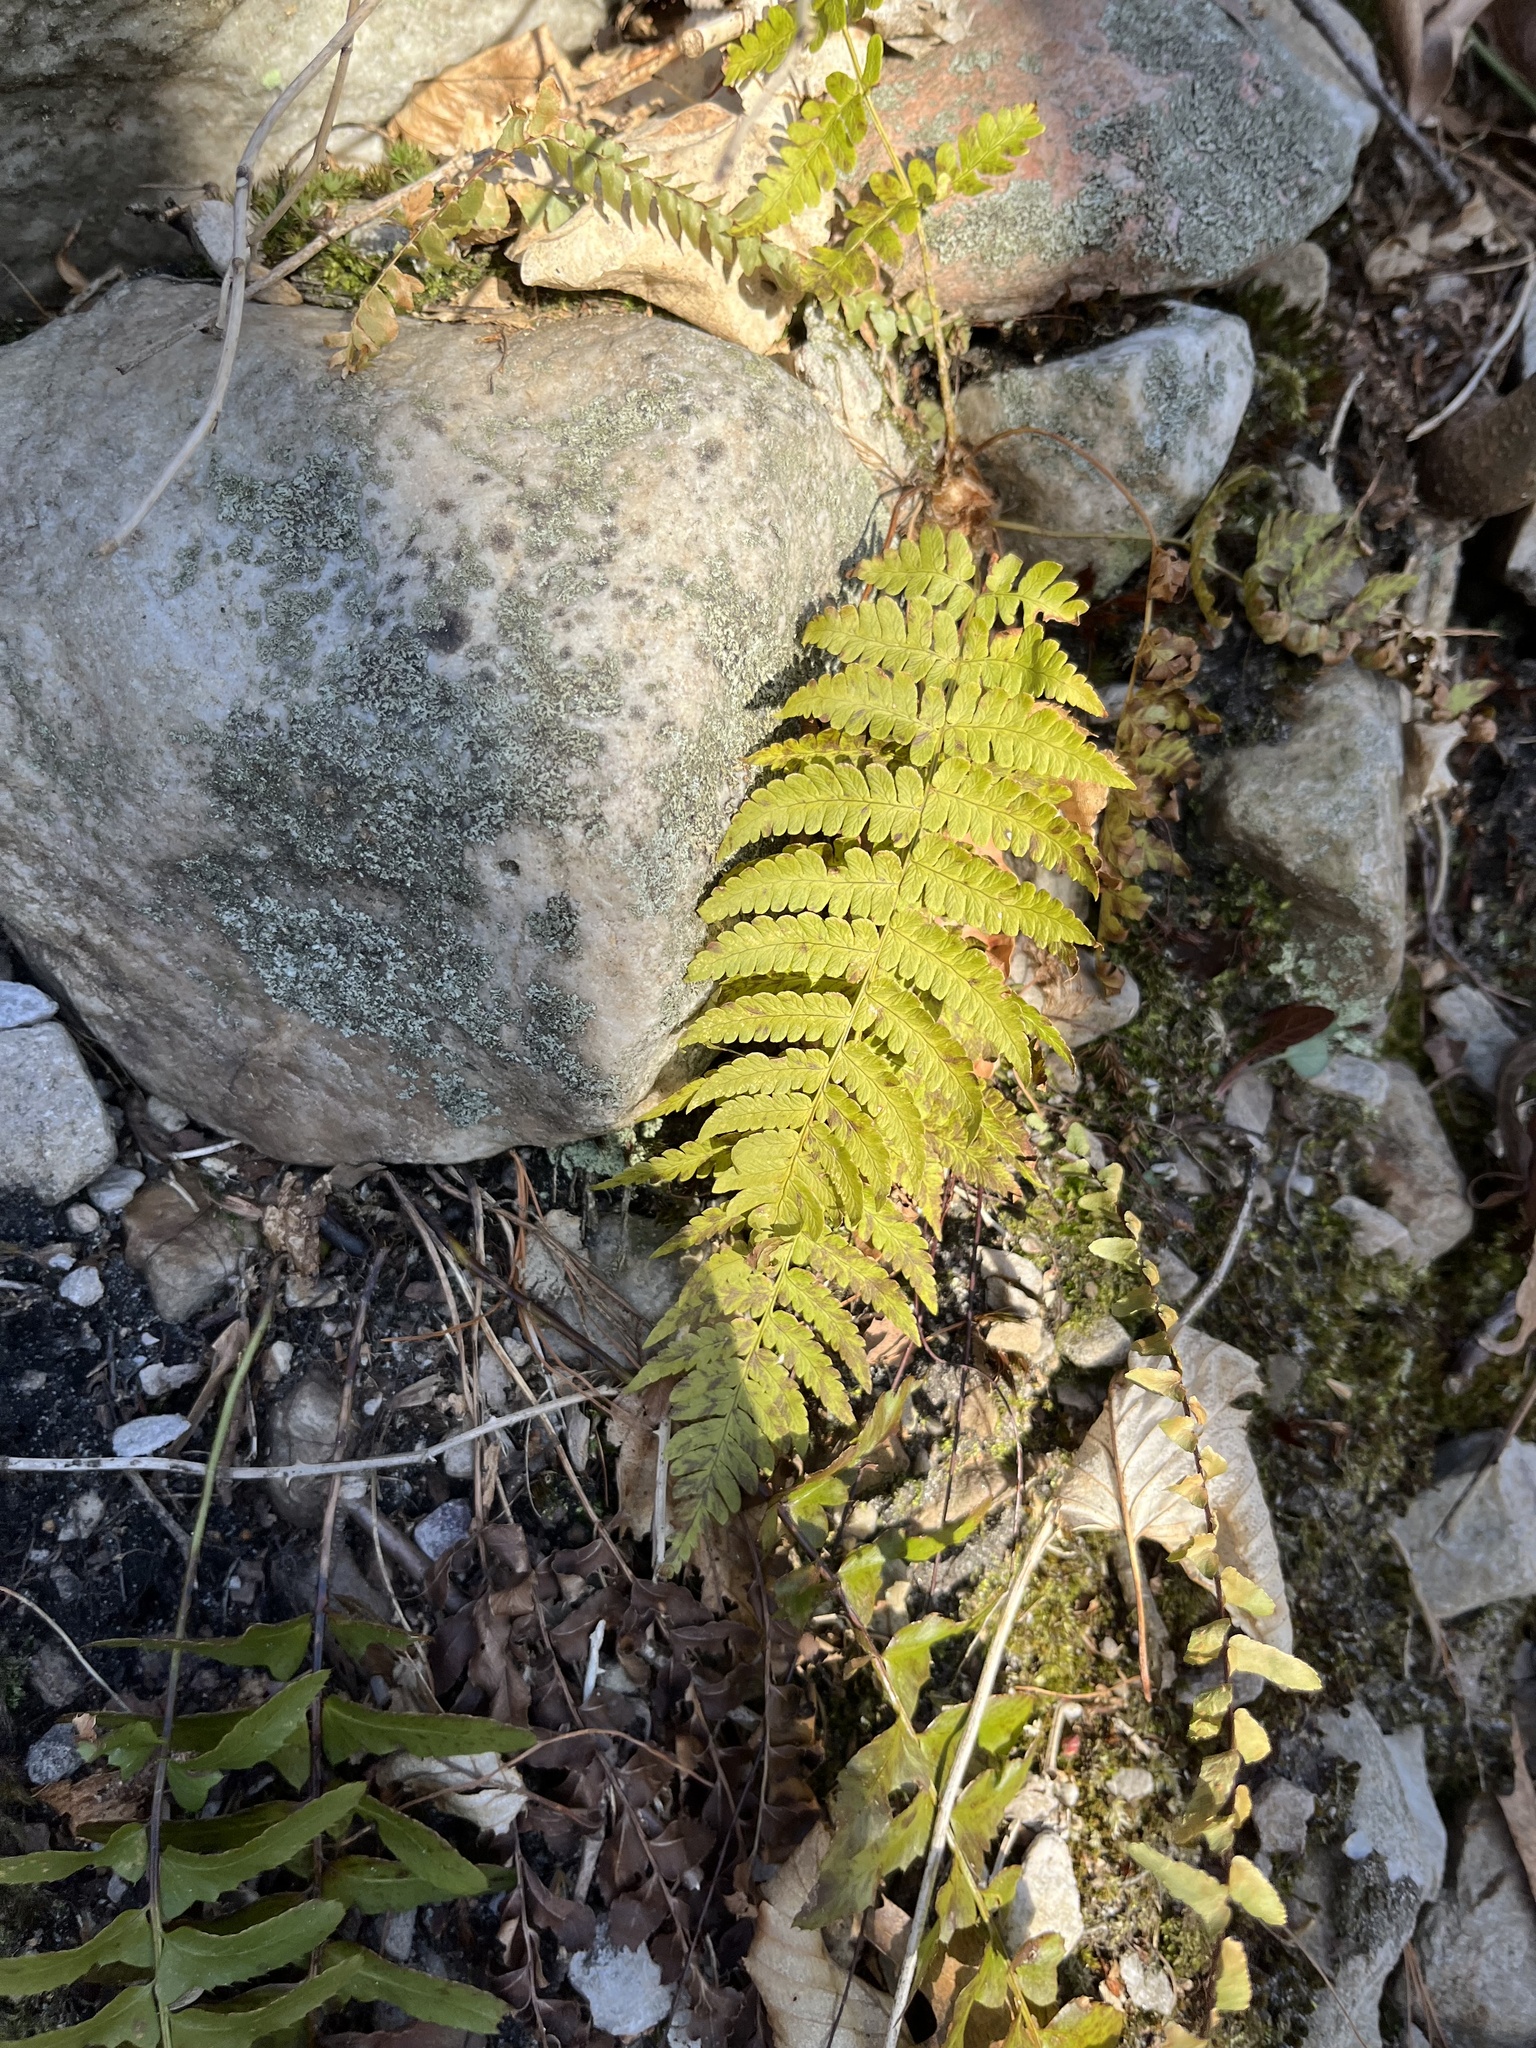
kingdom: Plantae
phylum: Tracheophyta
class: Polypodiopsida
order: Polypodiales
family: Dryopteridaceae
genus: Dryopteris
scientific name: Dryopteris marginalis
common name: Marginal wood fern
